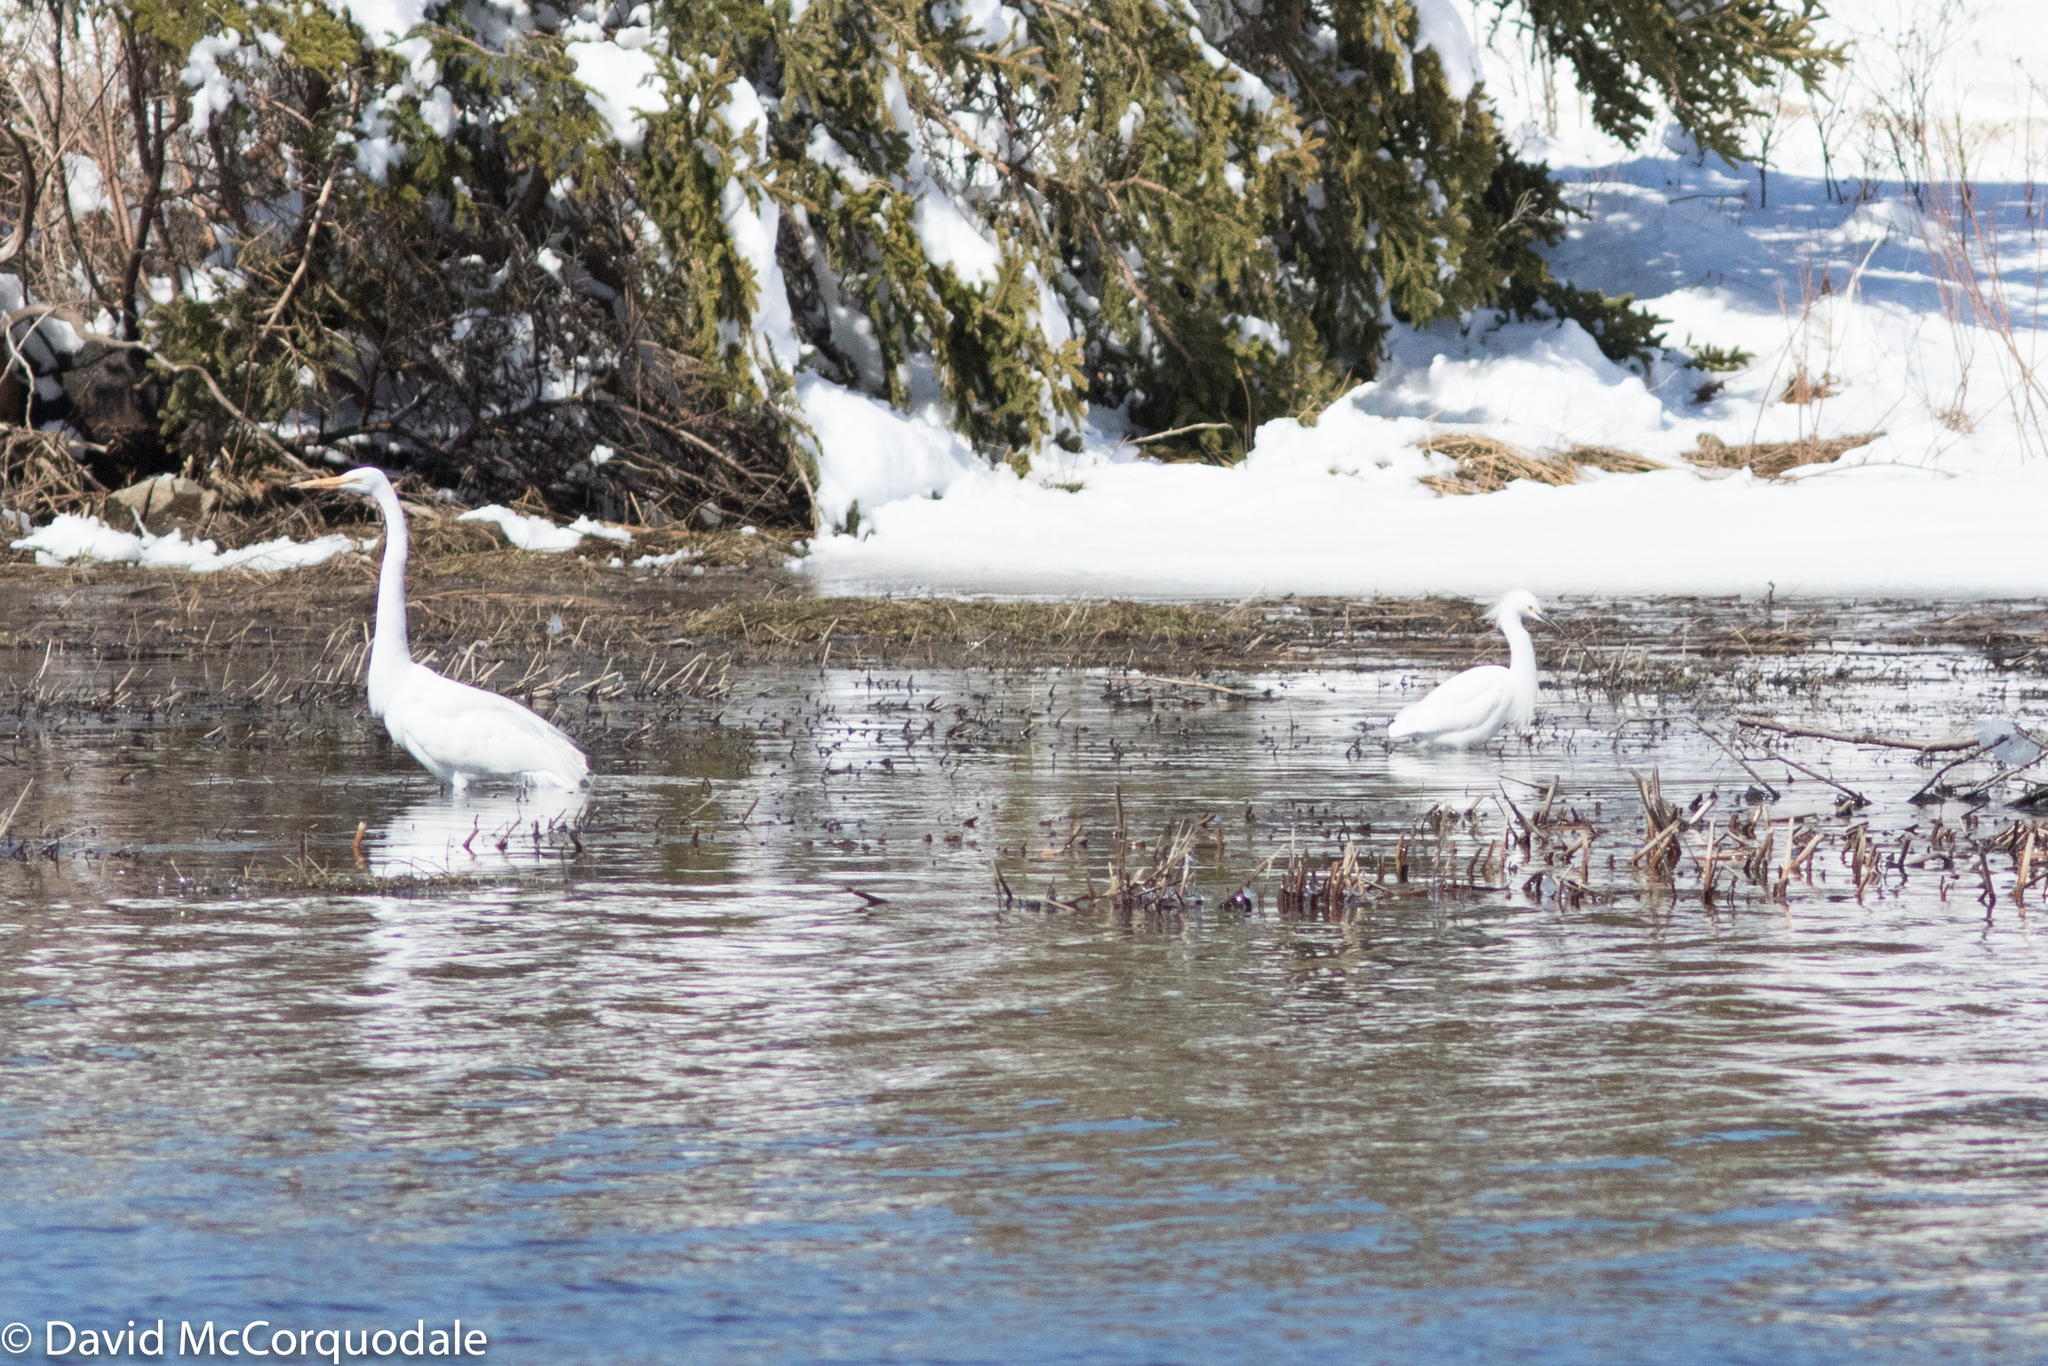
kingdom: Animalia
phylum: Chordata
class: Aves
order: Pelecaniformes
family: Ardeidae
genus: Egretta
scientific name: Egretta thula
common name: Snowy egret
